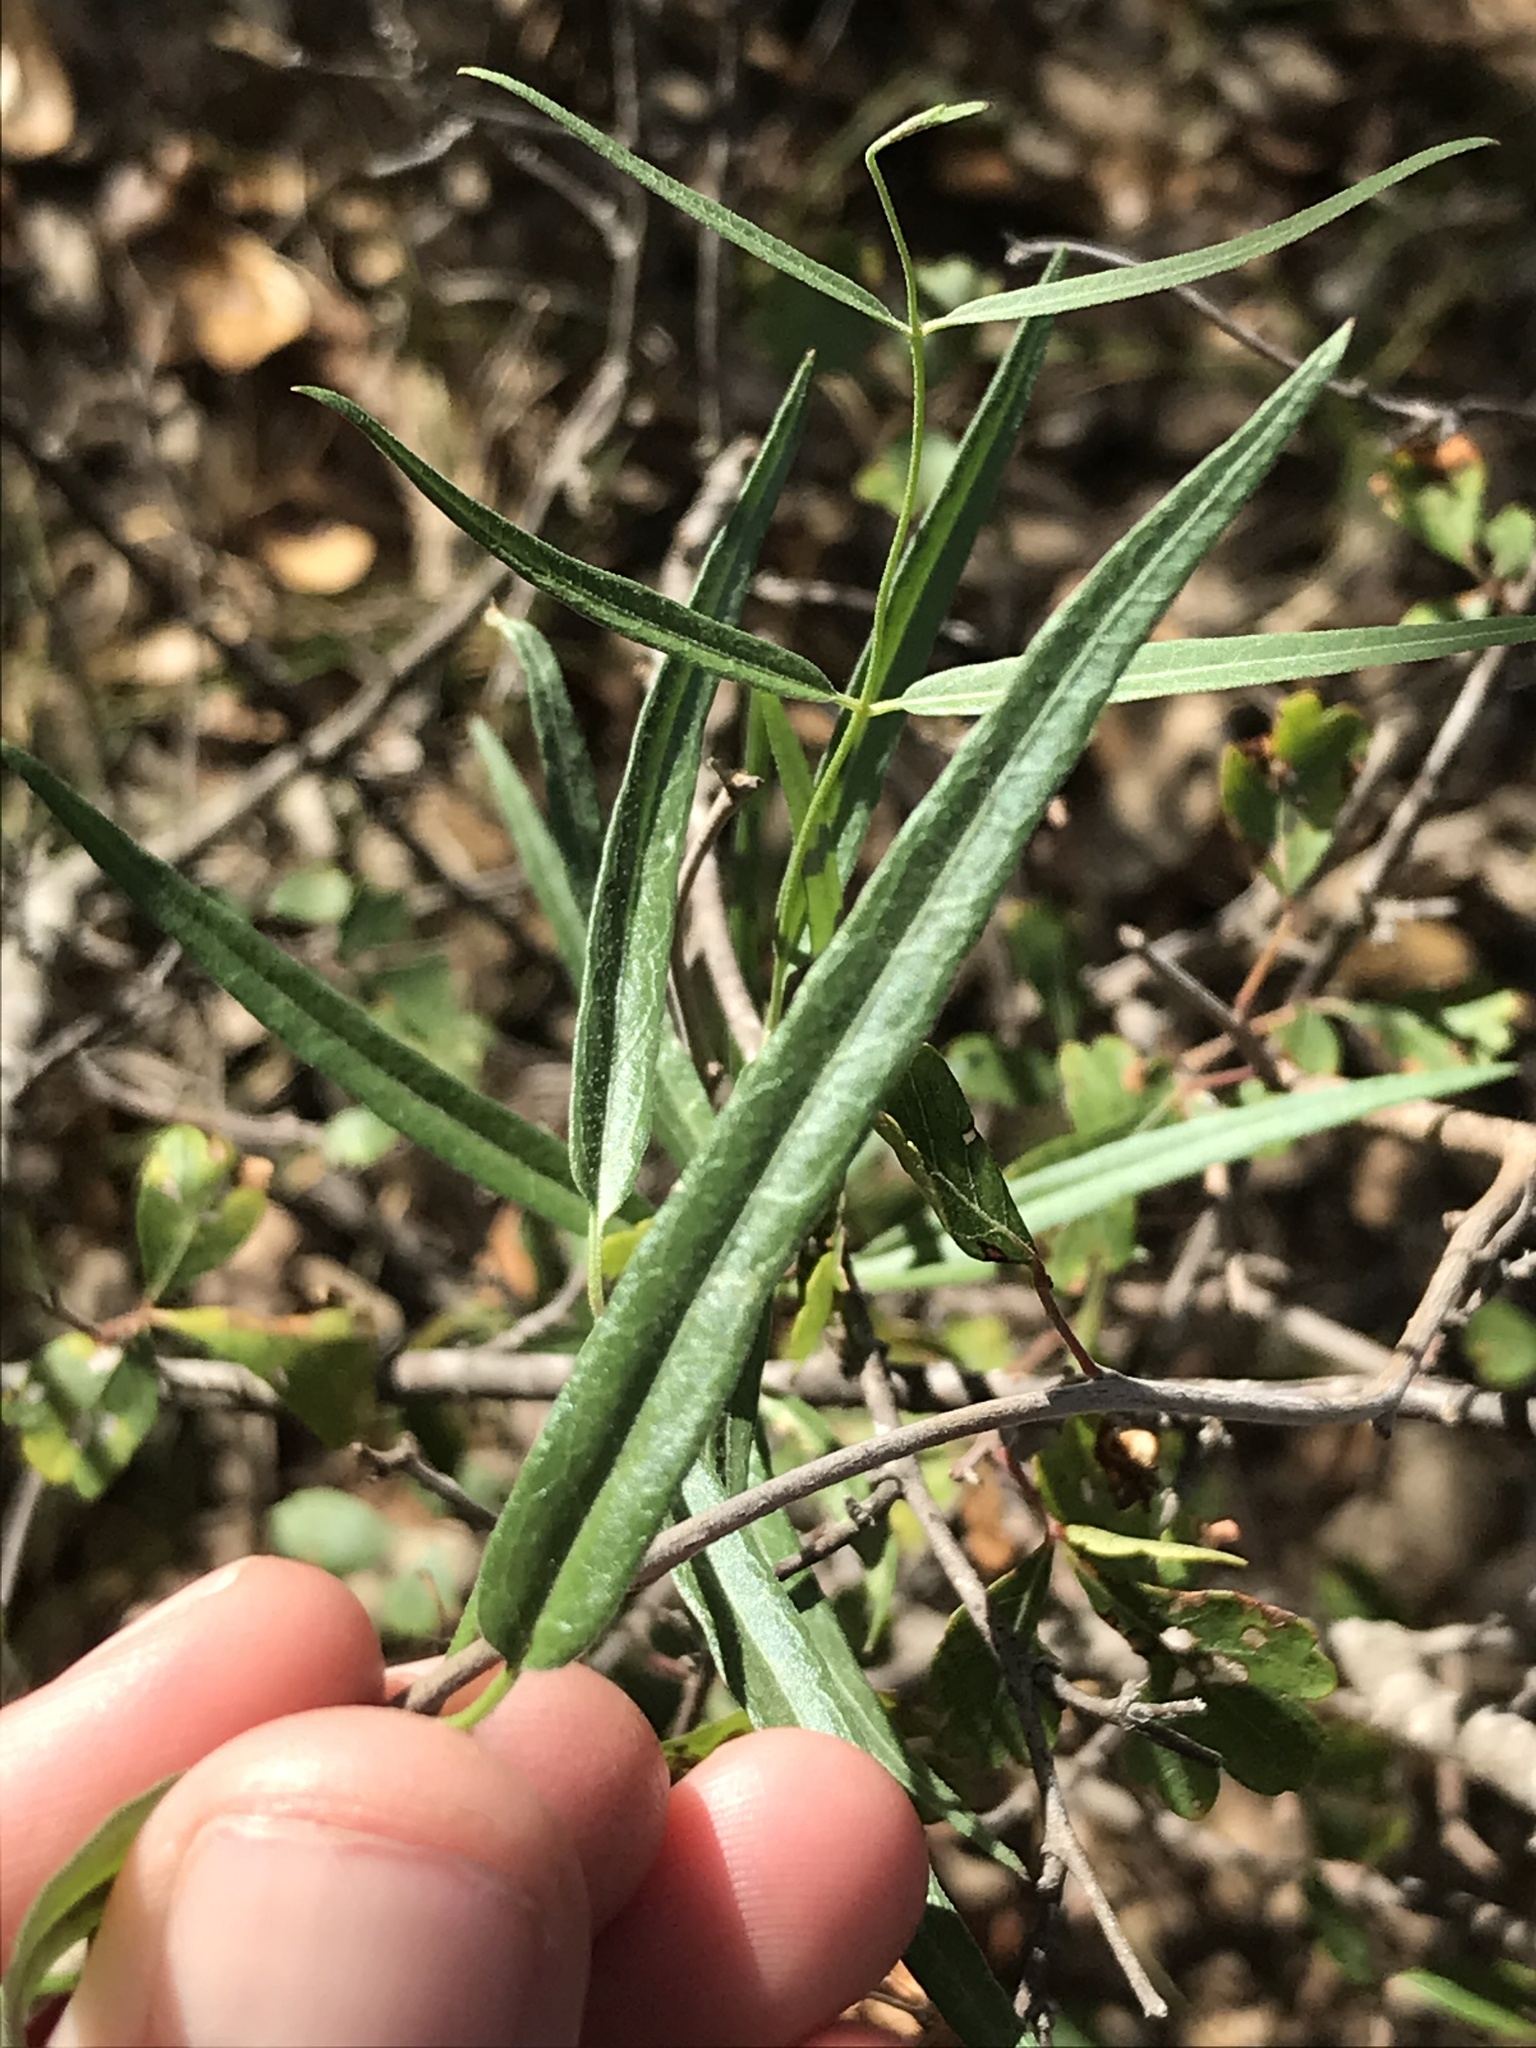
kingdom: Plantae
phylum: Tracheophyta
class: Magnoliopsida
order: Gentianales
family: Apocynaceae
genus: Funastrum
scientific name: Funastrum crispum
